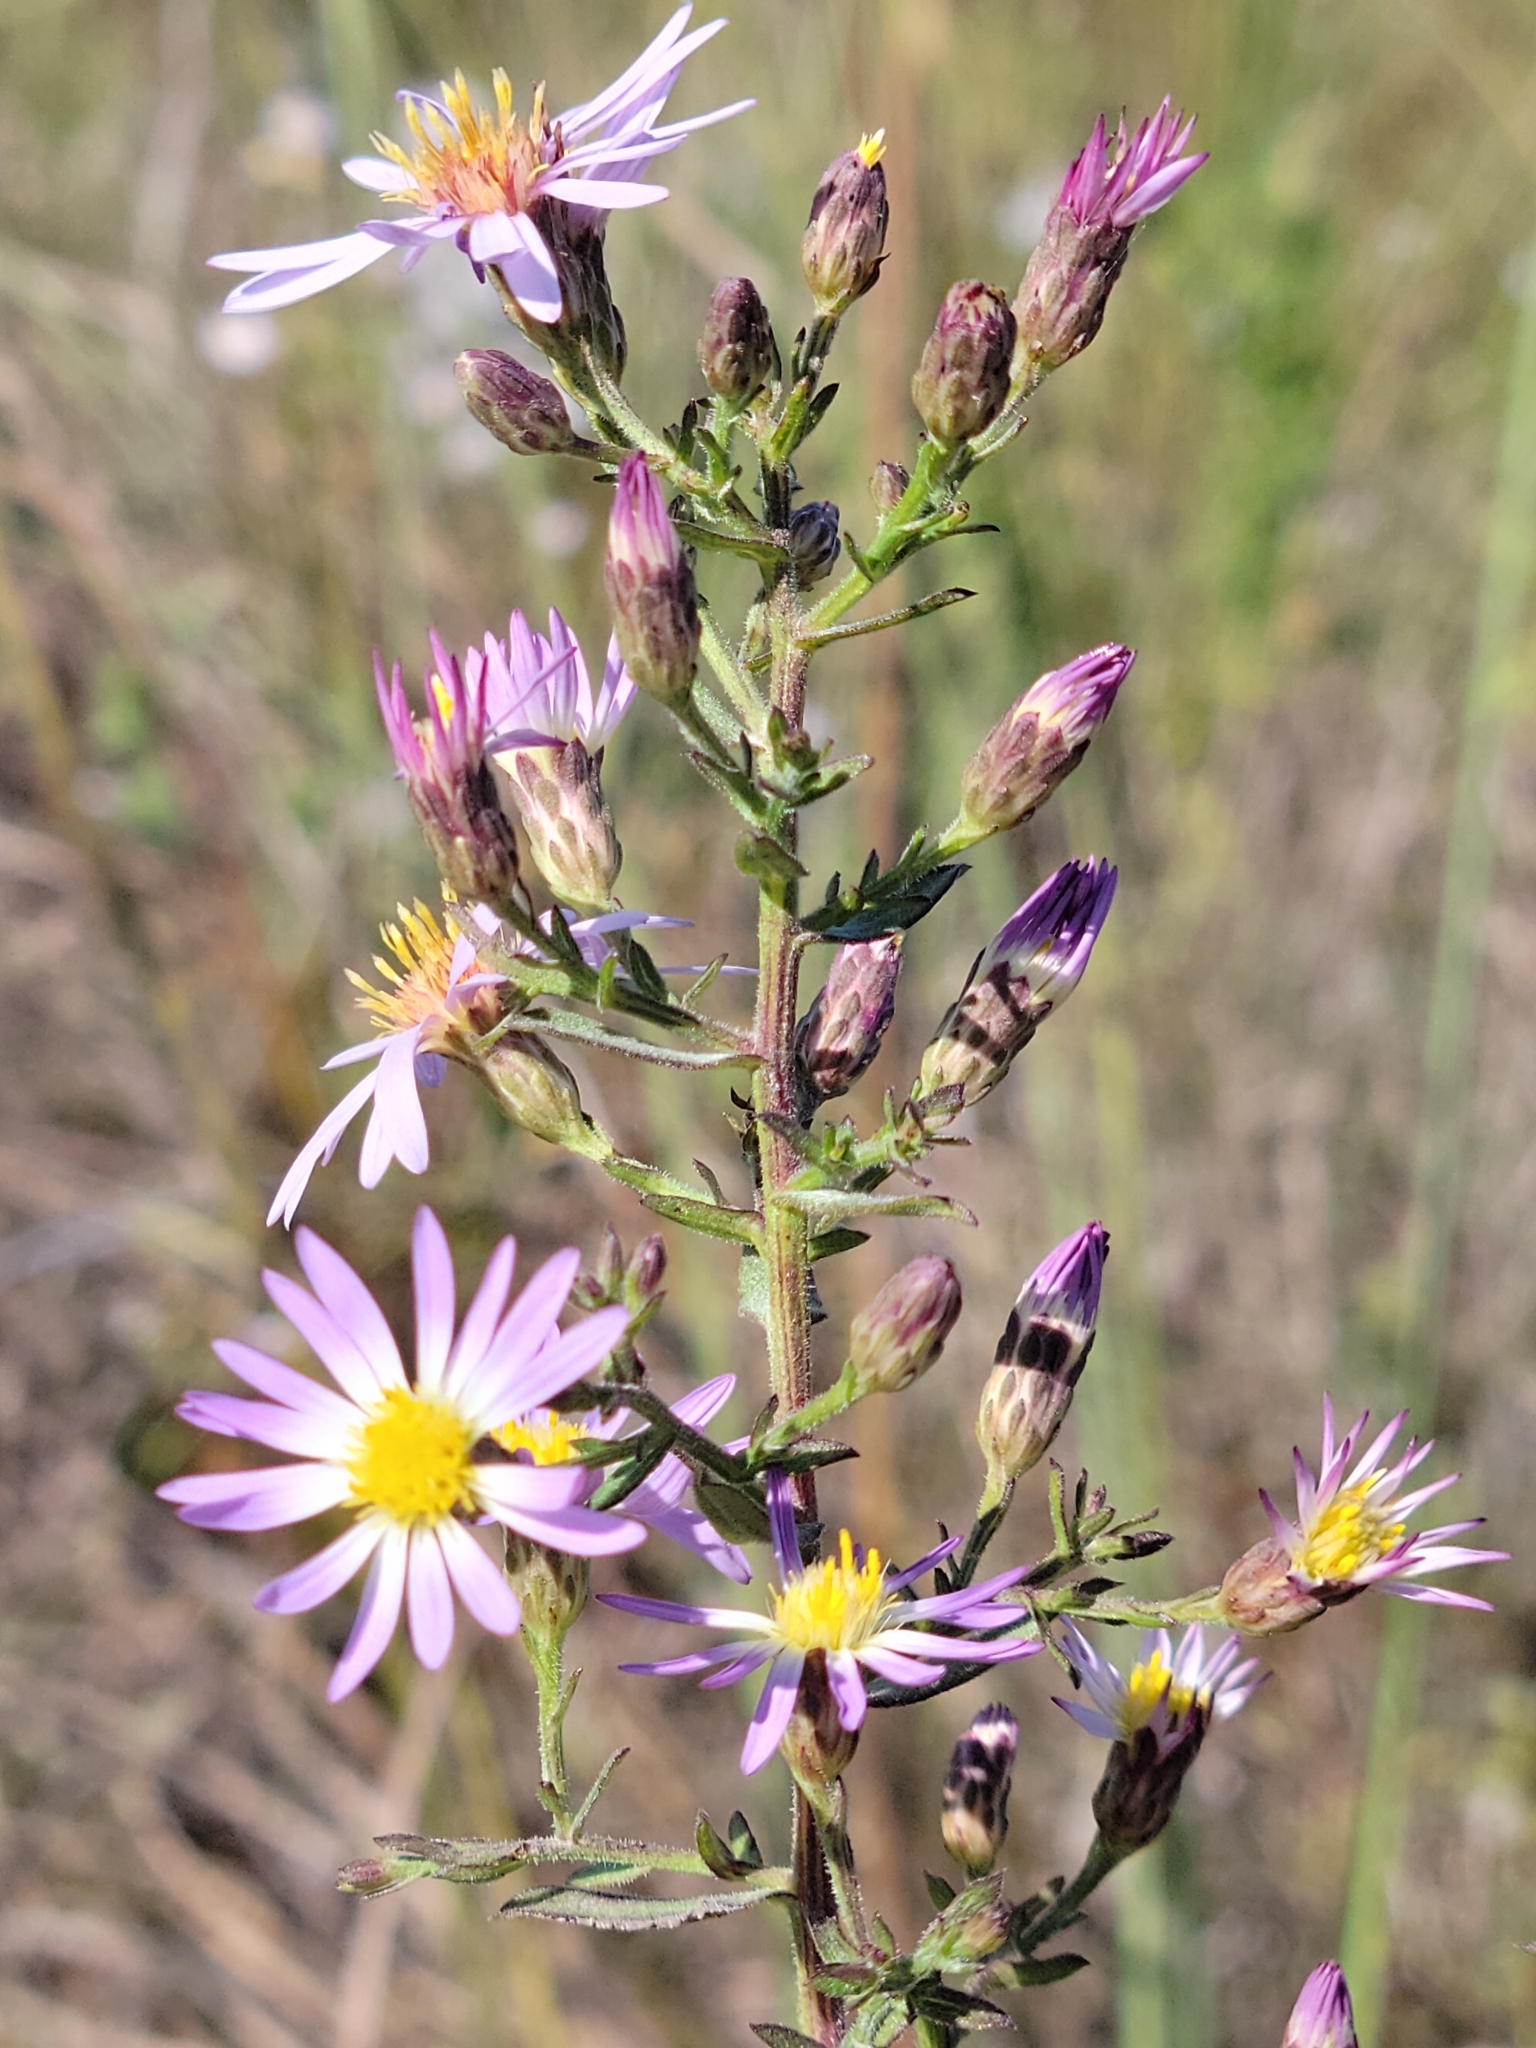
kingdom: Plantae
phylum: Tracheophyta
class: Magnoliopsida
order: Asterales
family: Asteraceae
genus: Symphyotrichum
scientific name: Symphyotrichum fontinale
